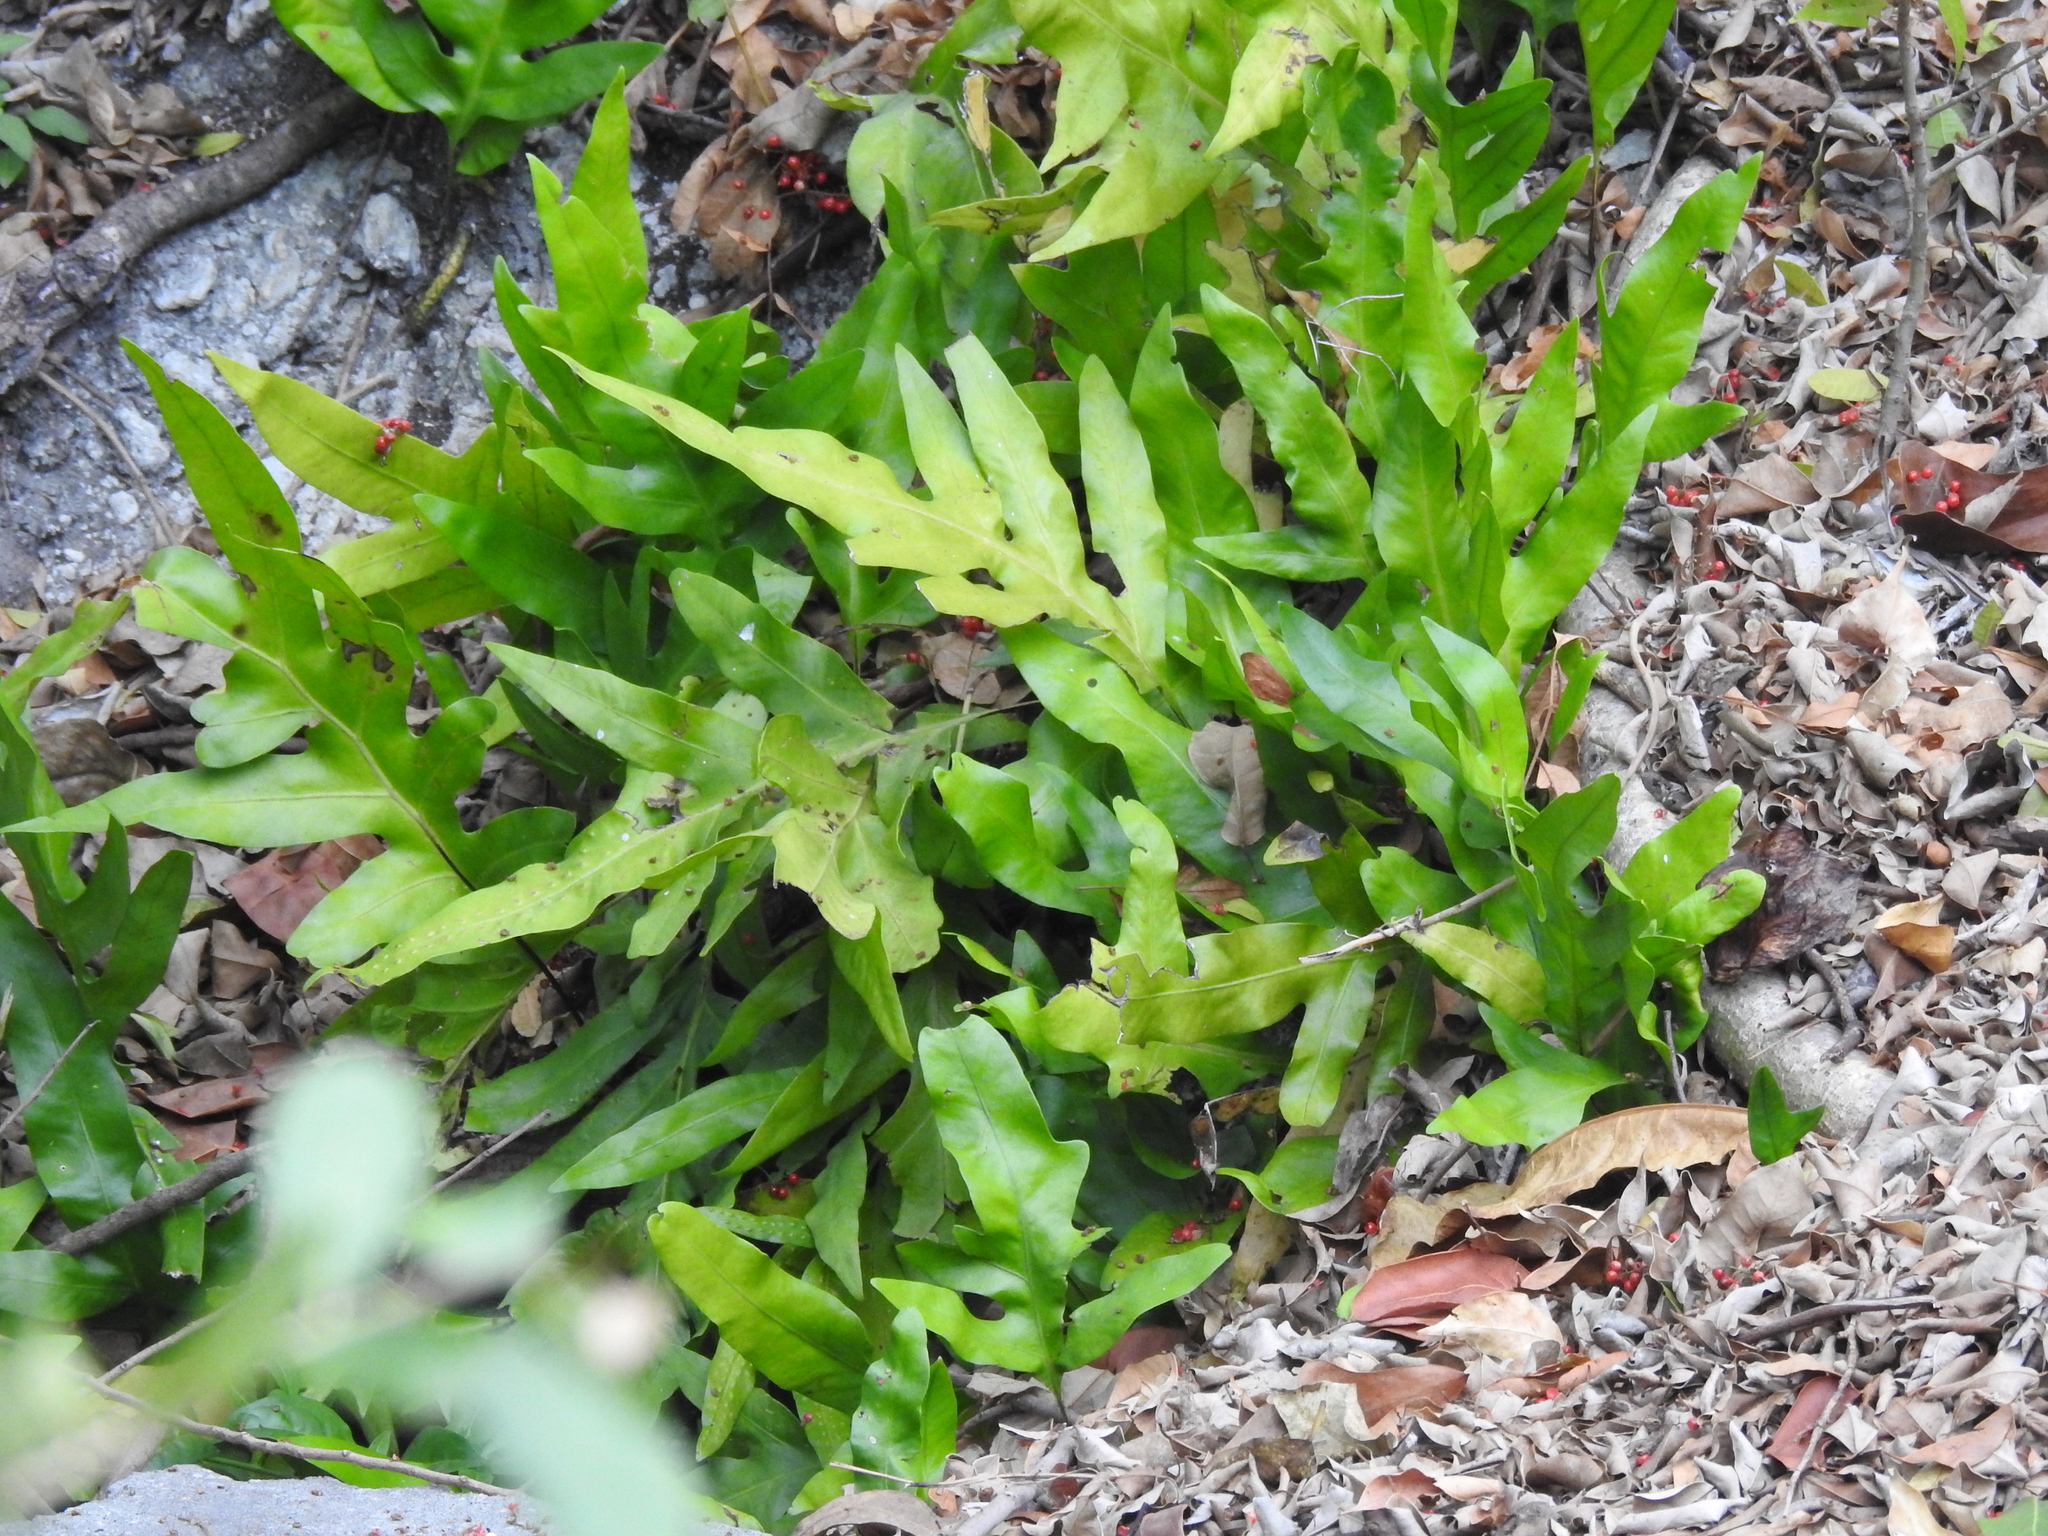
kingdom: Plantae
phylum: Tracheophyta
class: Polypodiopsida
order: Polypodiales
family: Polypodiaceae
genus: Microsorum
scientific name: Microsorum grossum
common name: Musk fern
